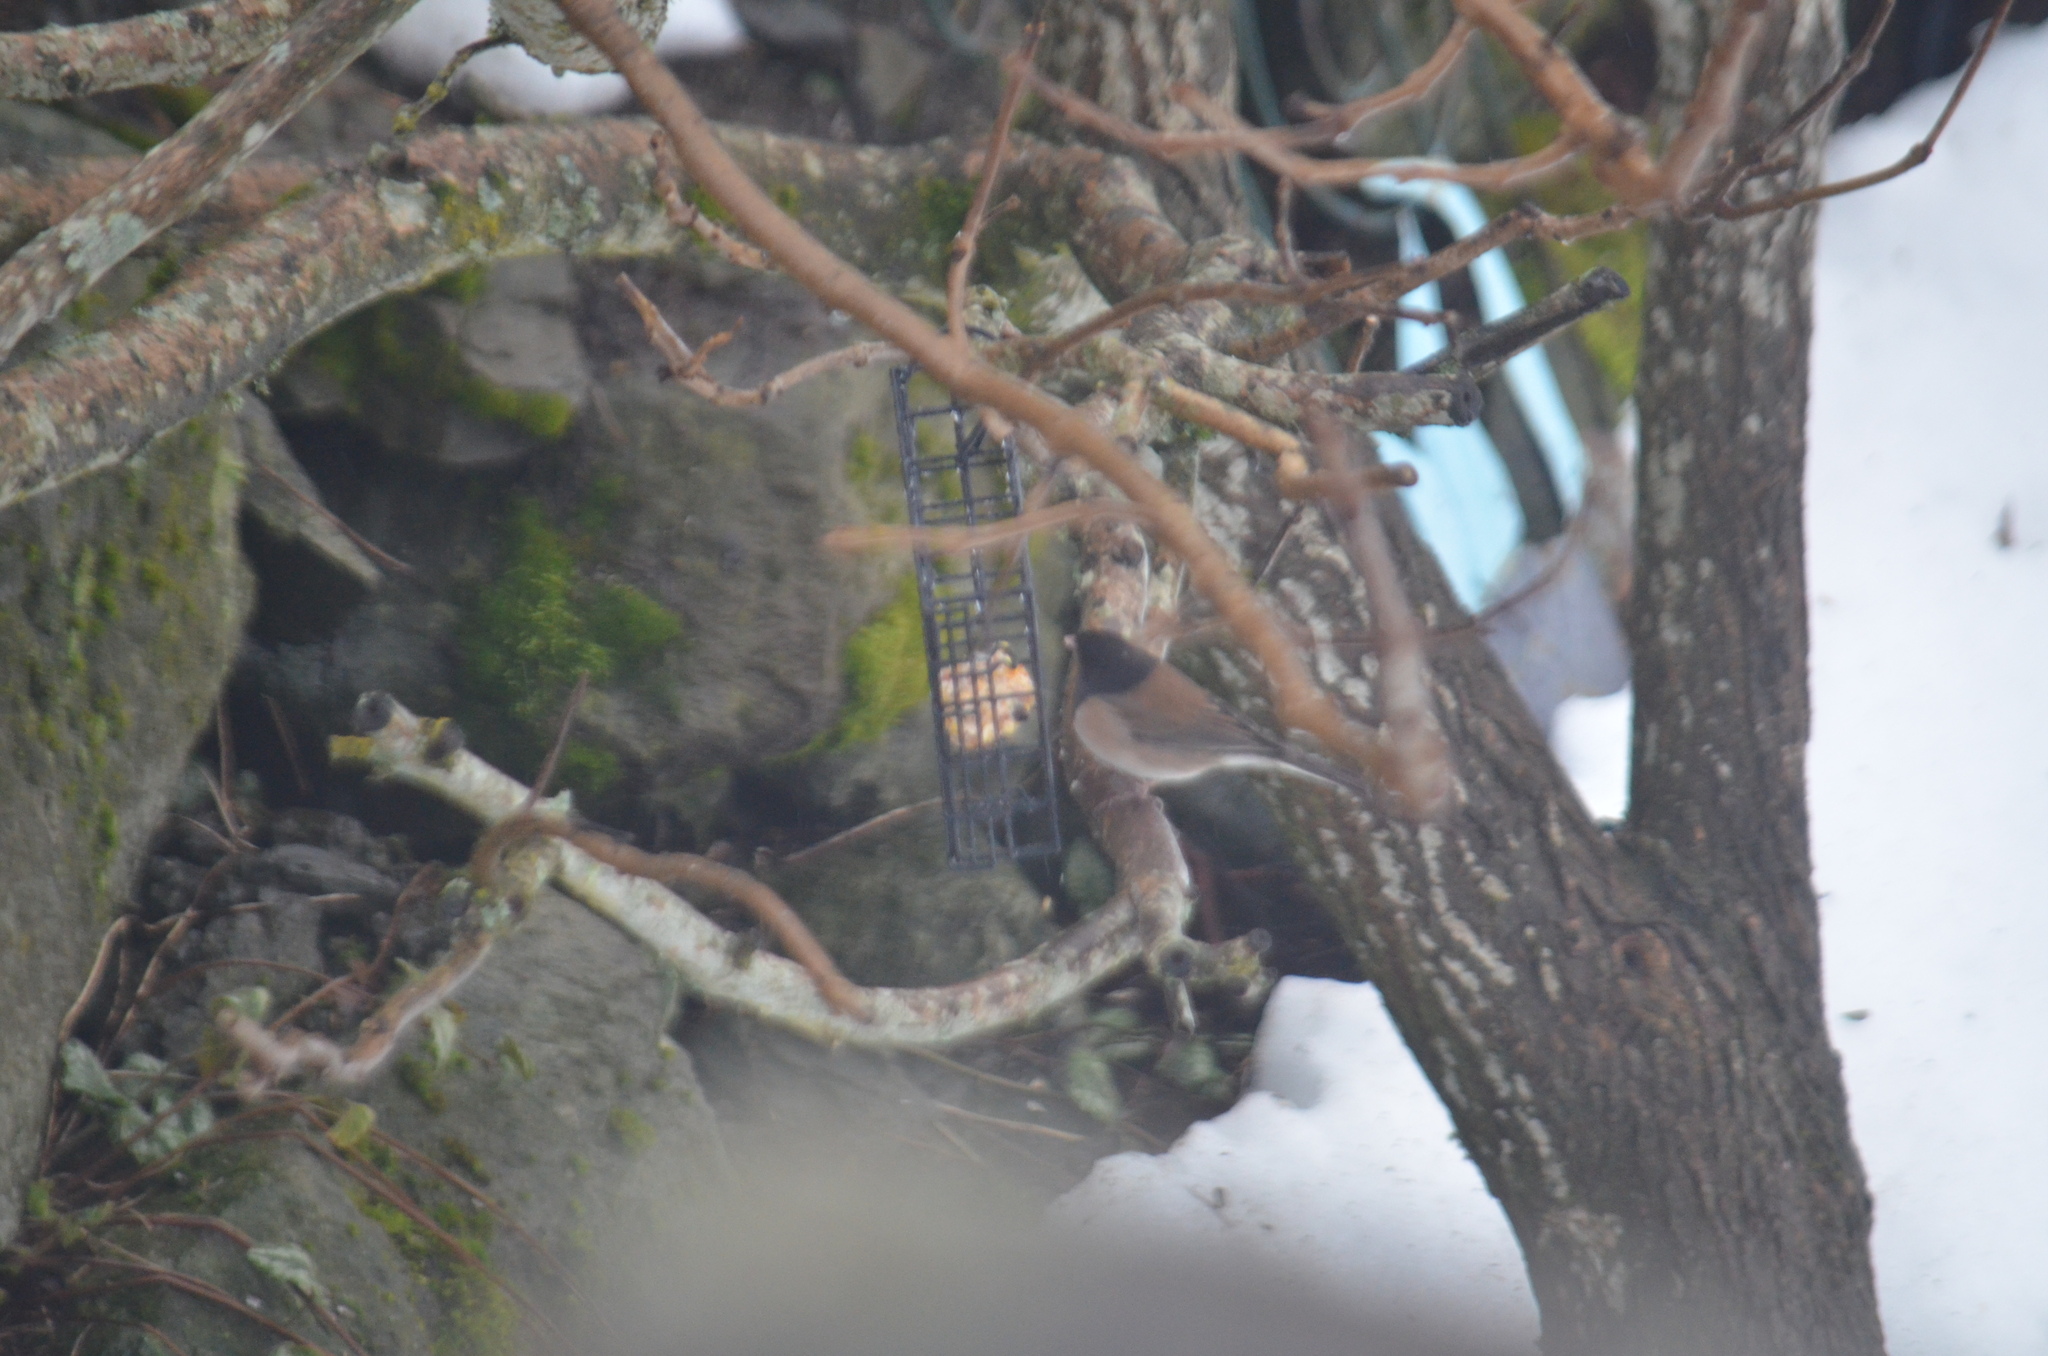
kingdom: Animalia
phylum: Chordata
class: Aves
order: Passeriformes
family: Passerellidae
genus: Junco
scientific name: Junco hyemalis
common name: Dark-eyed junco
